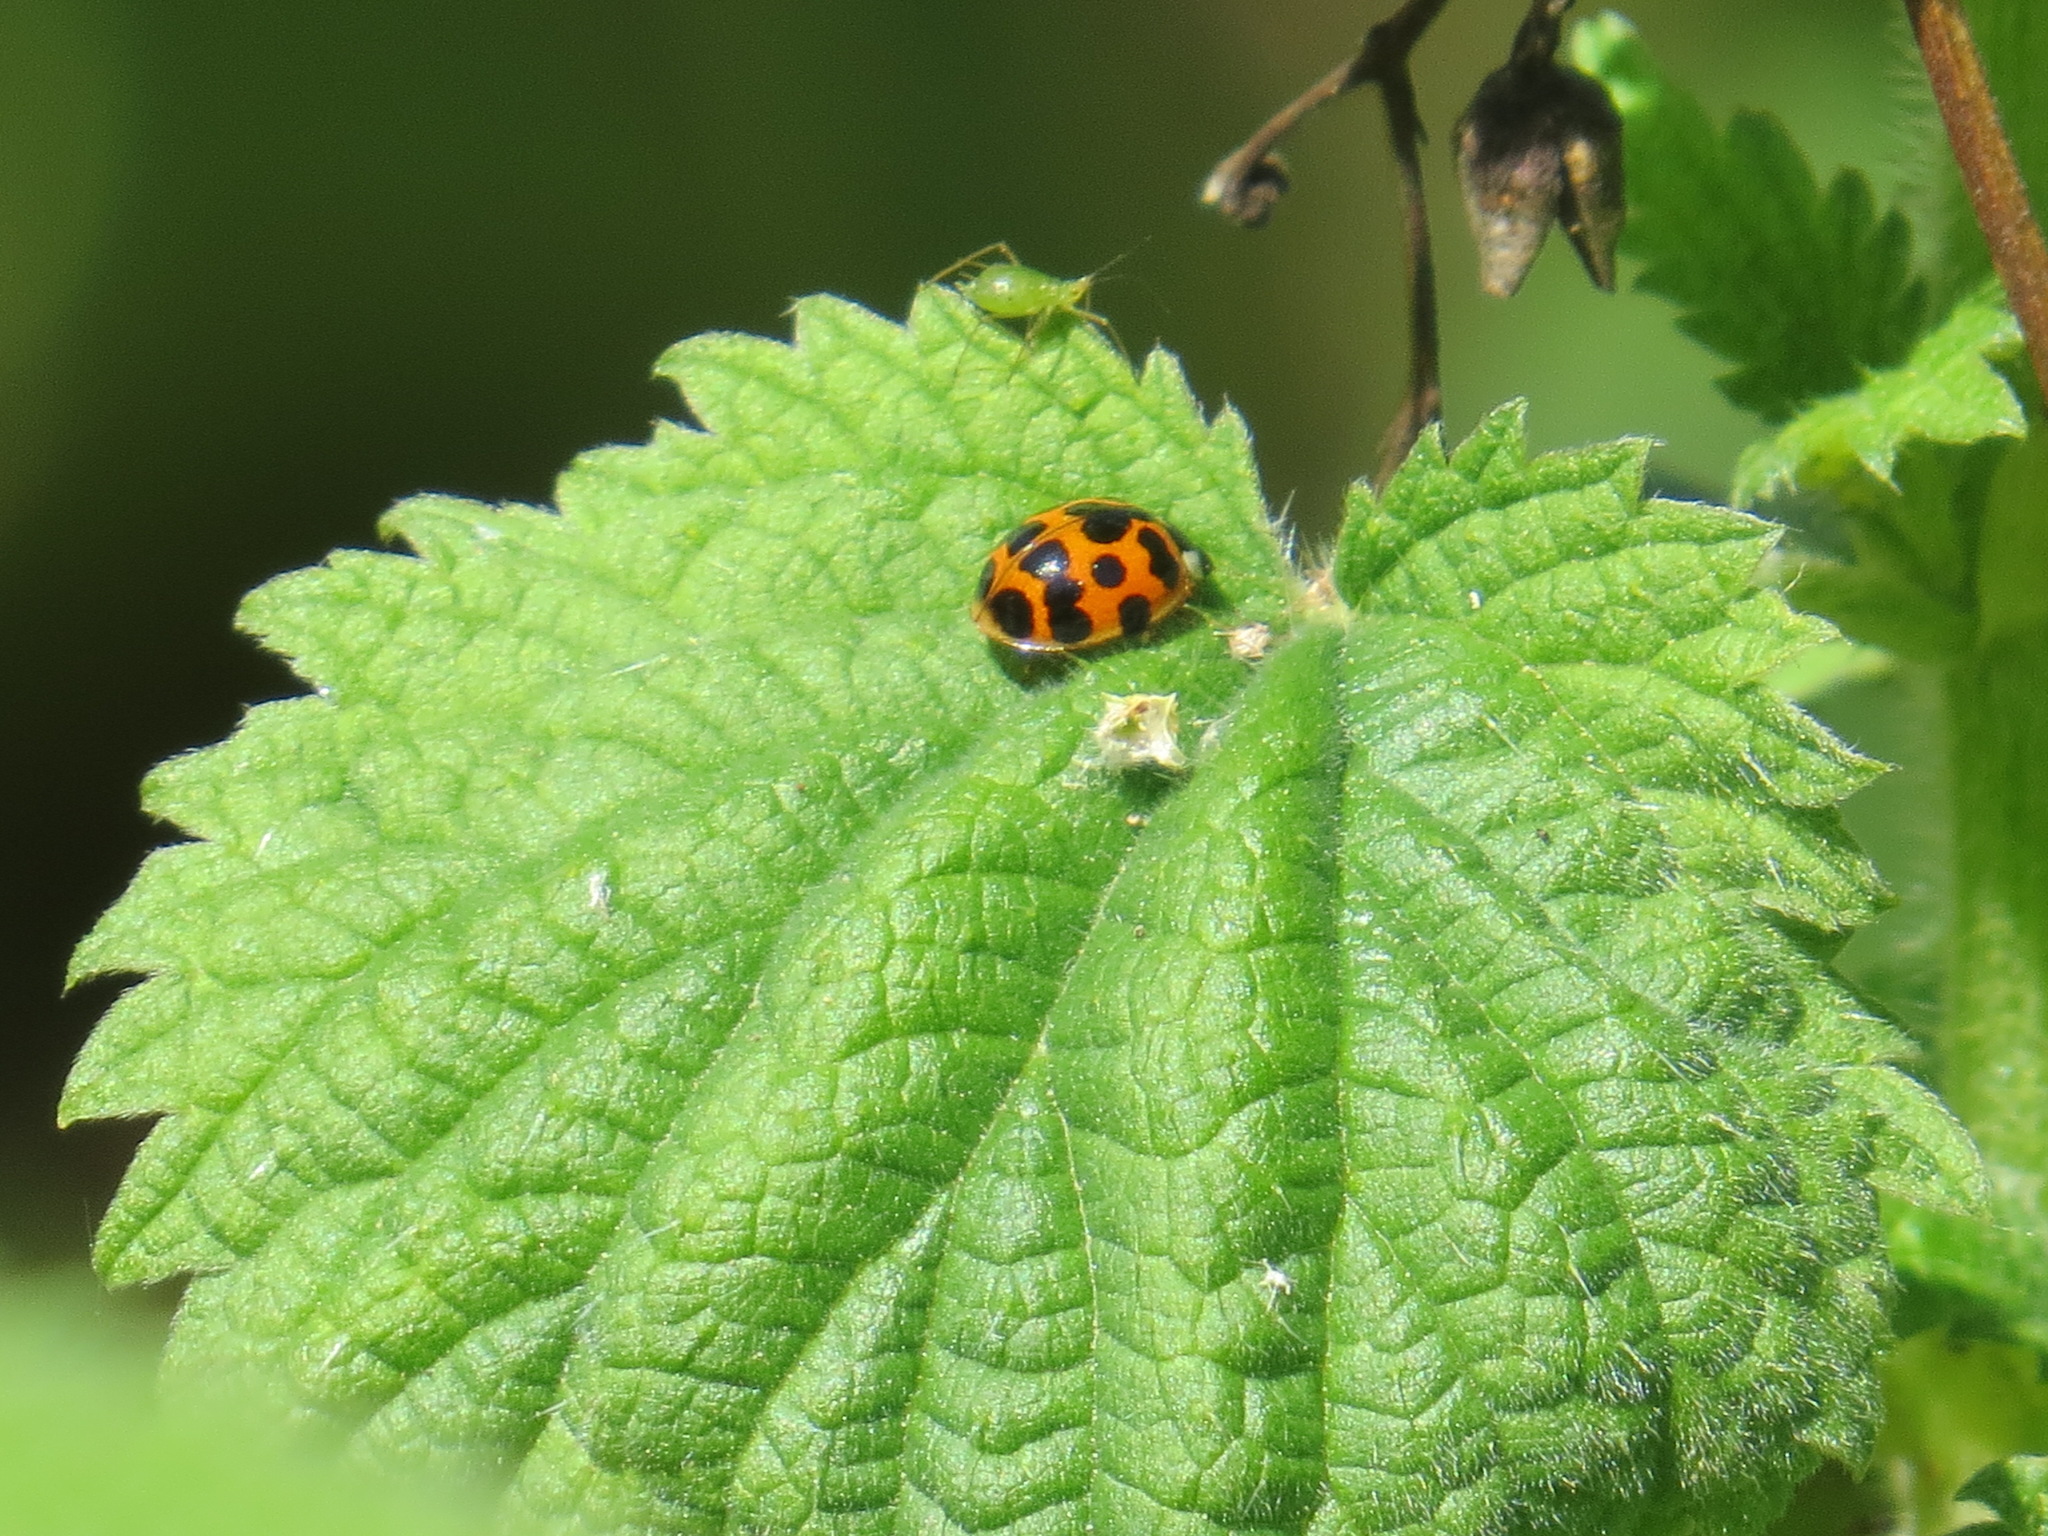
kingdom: Animalia
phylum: Arthropoda
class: Insecta
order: Coleoptera
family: Coccinellidae
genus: Harmonia
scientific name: Harmonia axyridis
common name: Harlequin ladybird
